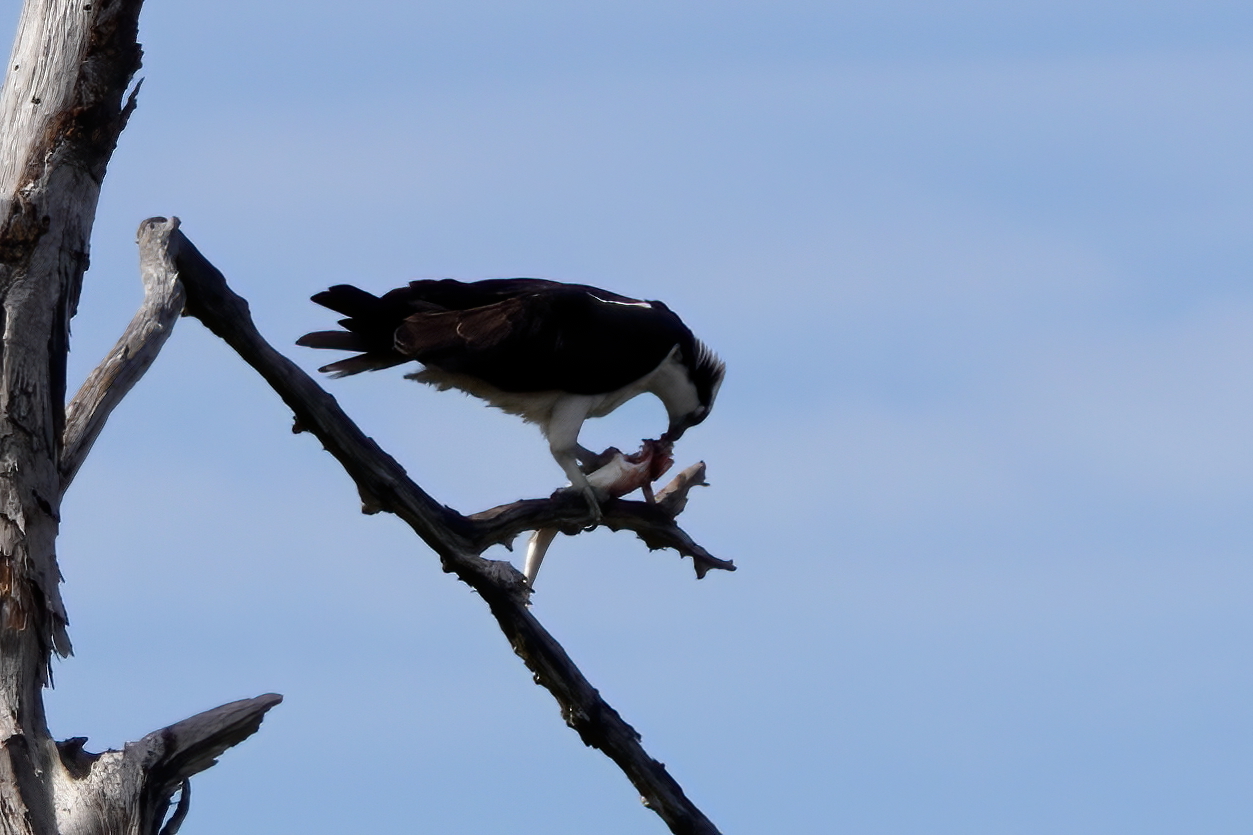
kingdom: Animalia
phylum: Chordata
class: Aves
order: Accipitriformes
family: Pandionidae
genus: Pandion
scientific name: Pandion haliaetus
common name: Osprey
